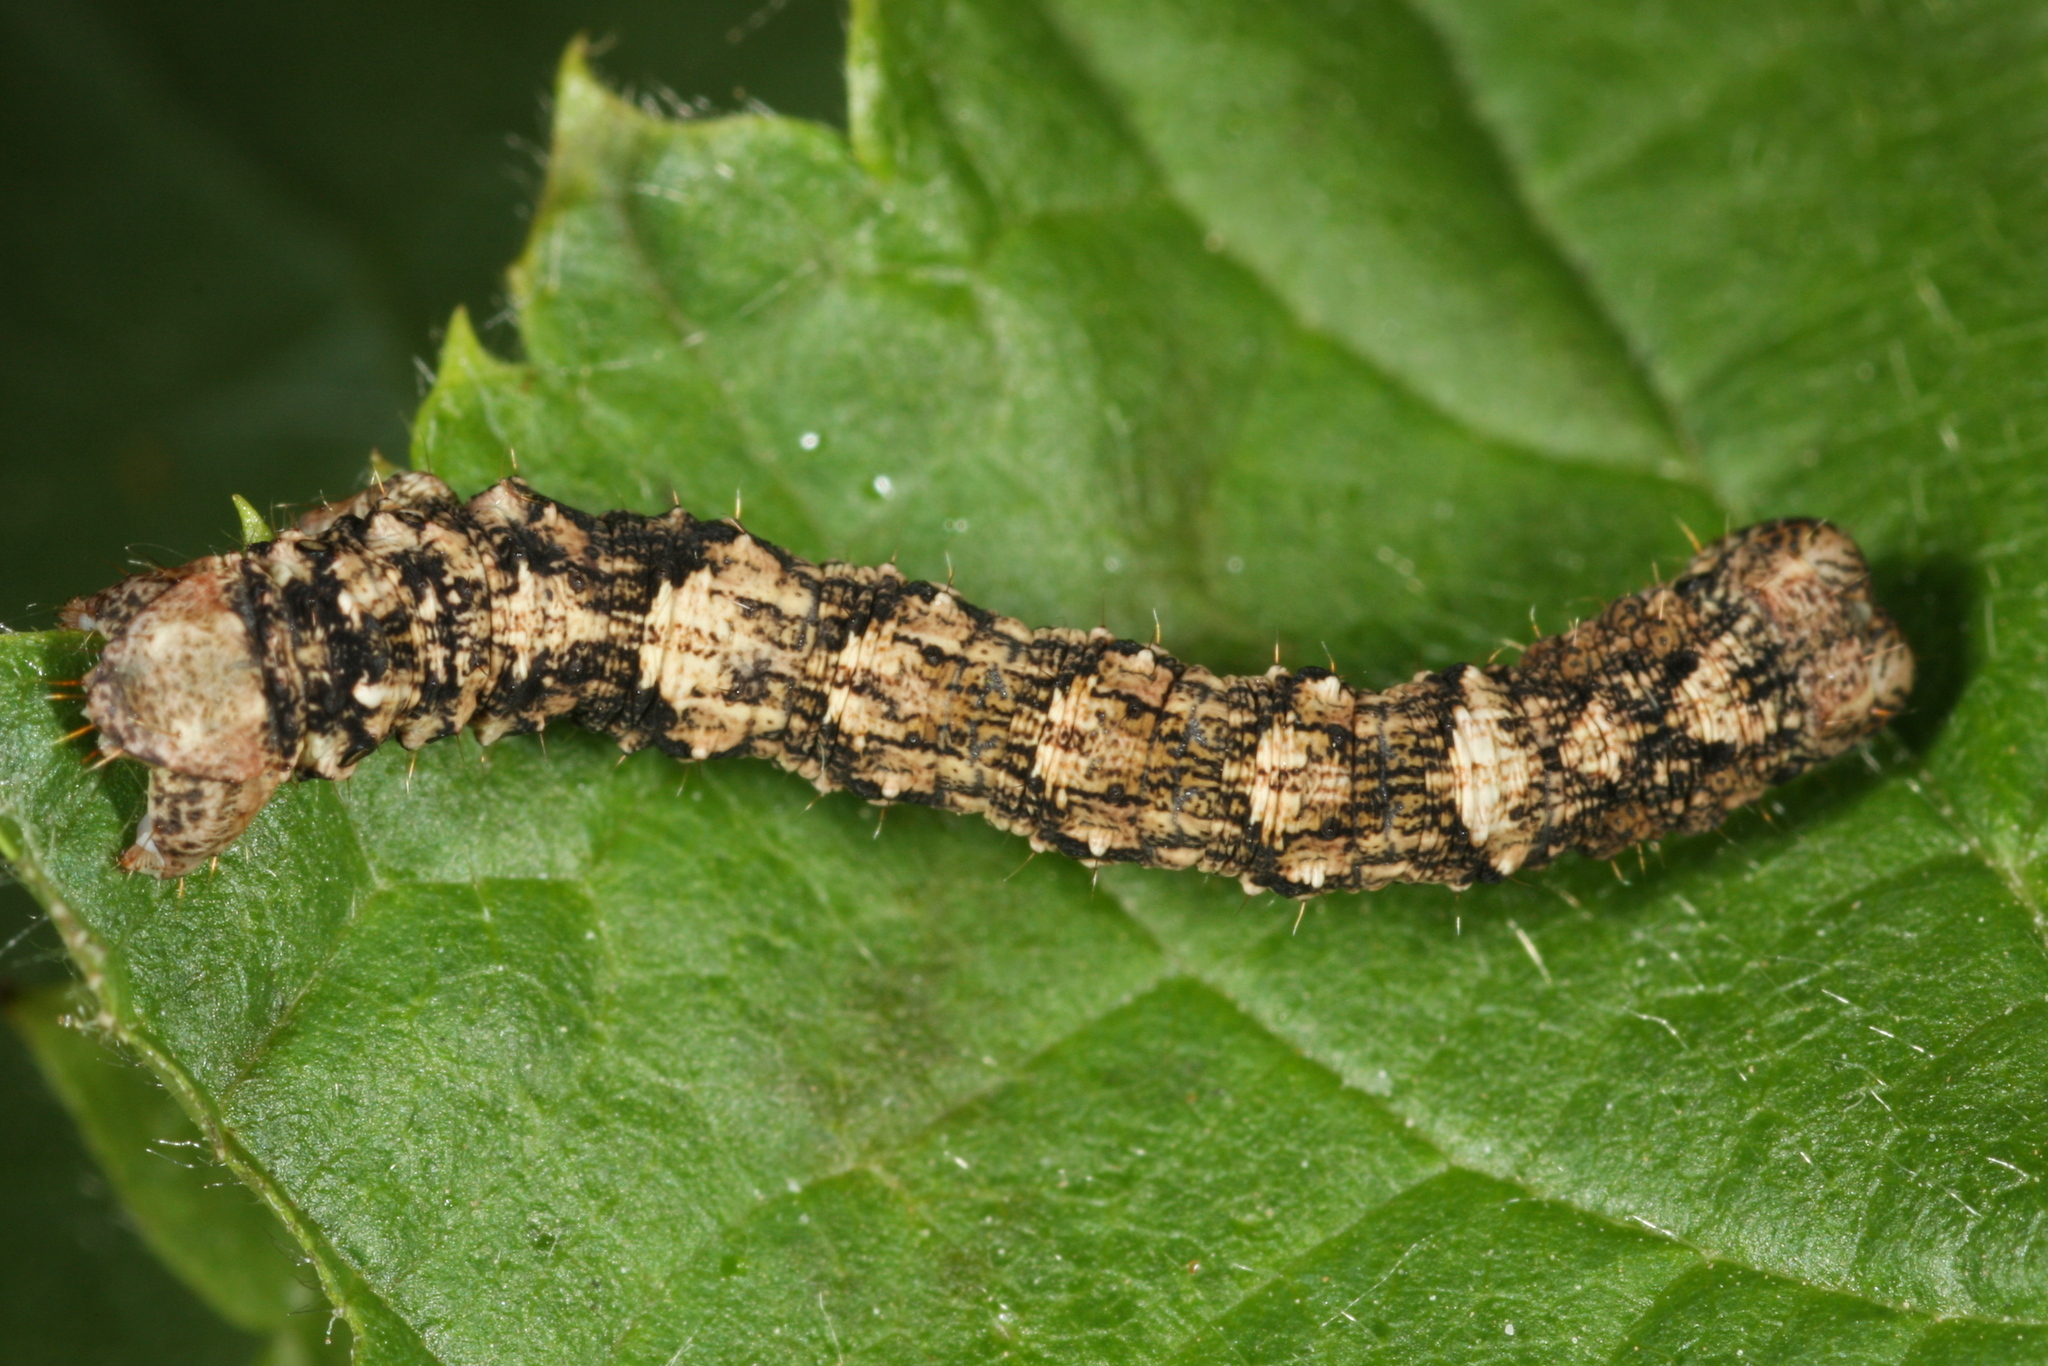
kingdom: Animalia
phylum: Arthropoda
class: Insecta
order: Lepidoptera
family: Geometridae
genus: Deileptenia
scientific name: Deileptenia ribeata
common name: Satin beauty
